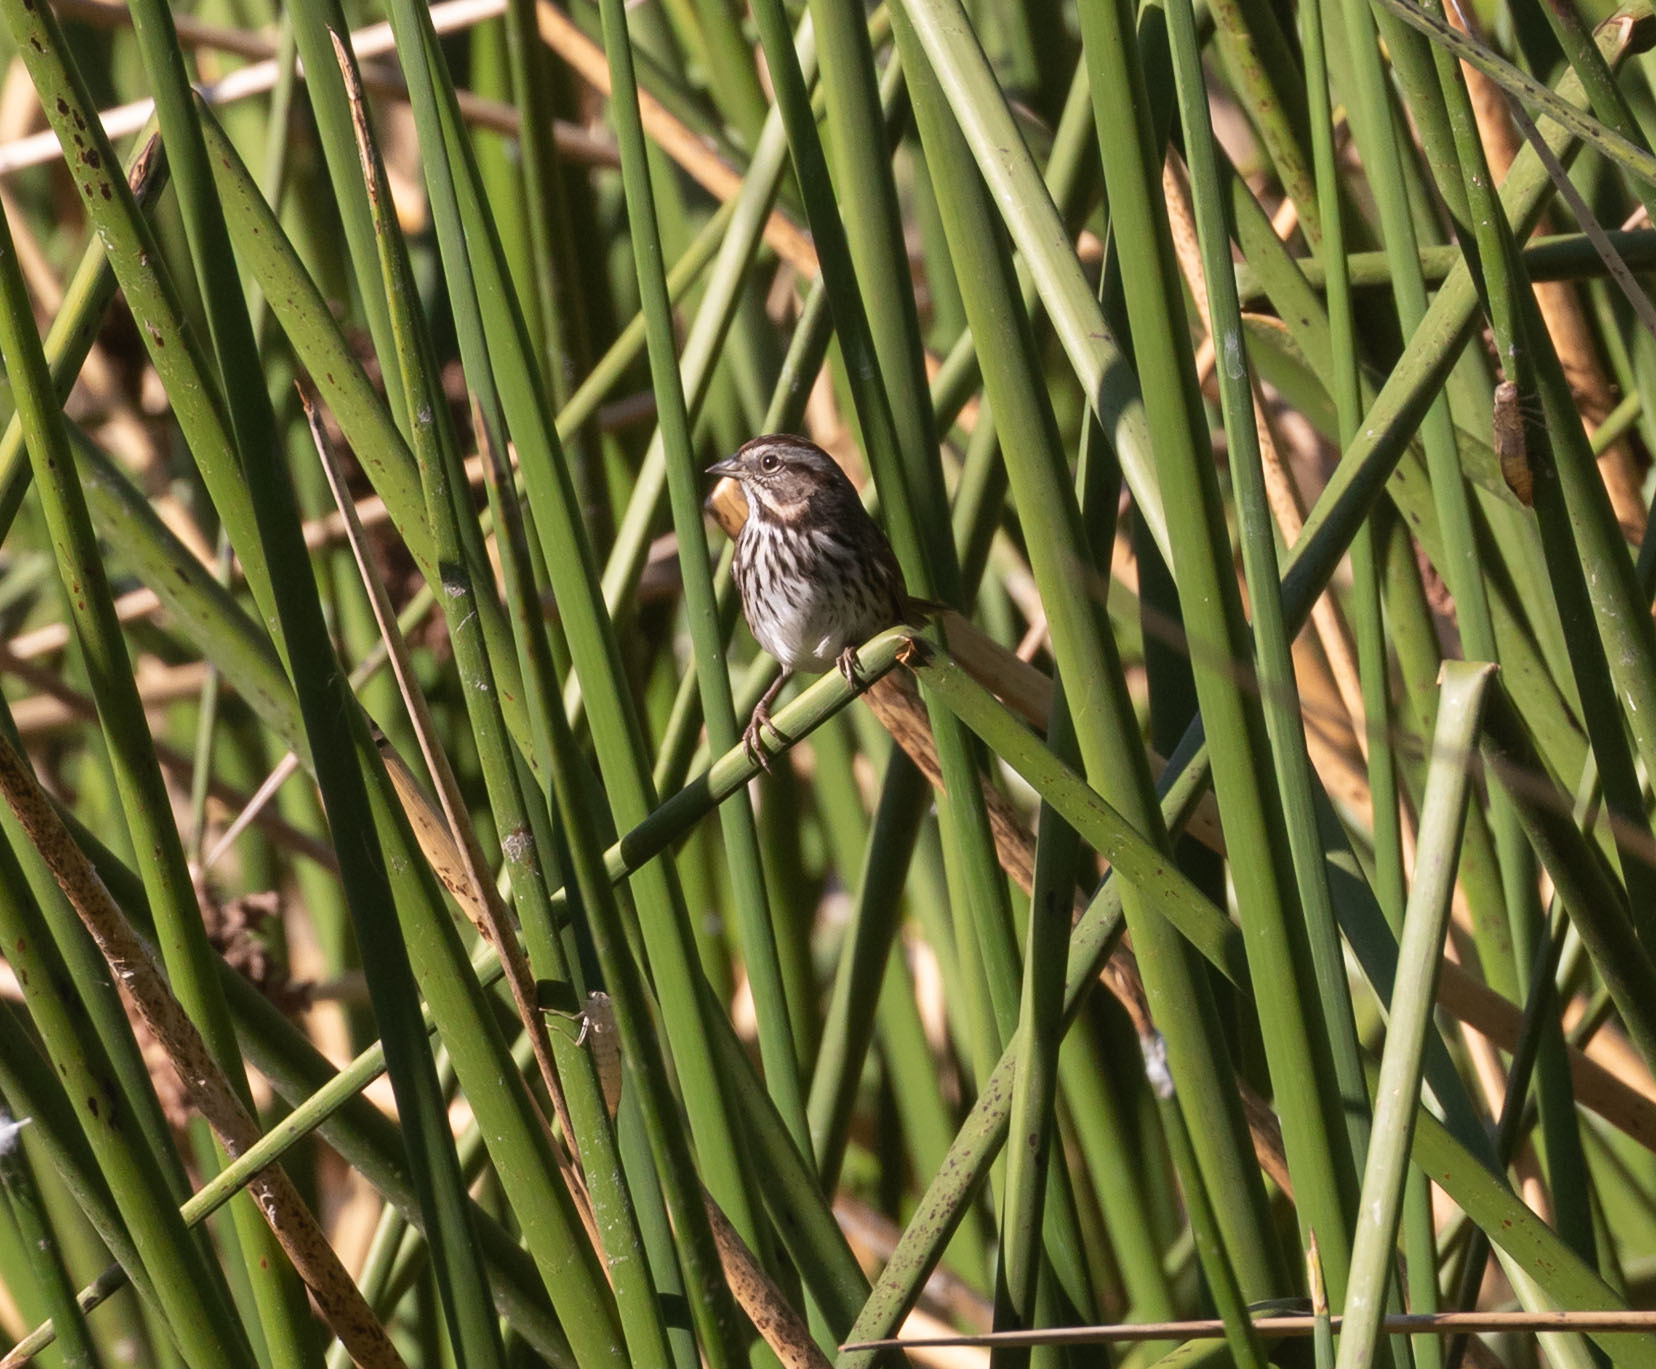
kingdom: Animalia
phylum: Chordata
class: Aves
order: Passeriformes
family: Passerellidae
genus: Melospiza
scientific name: Melospiza melodia
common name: Song sparrow
